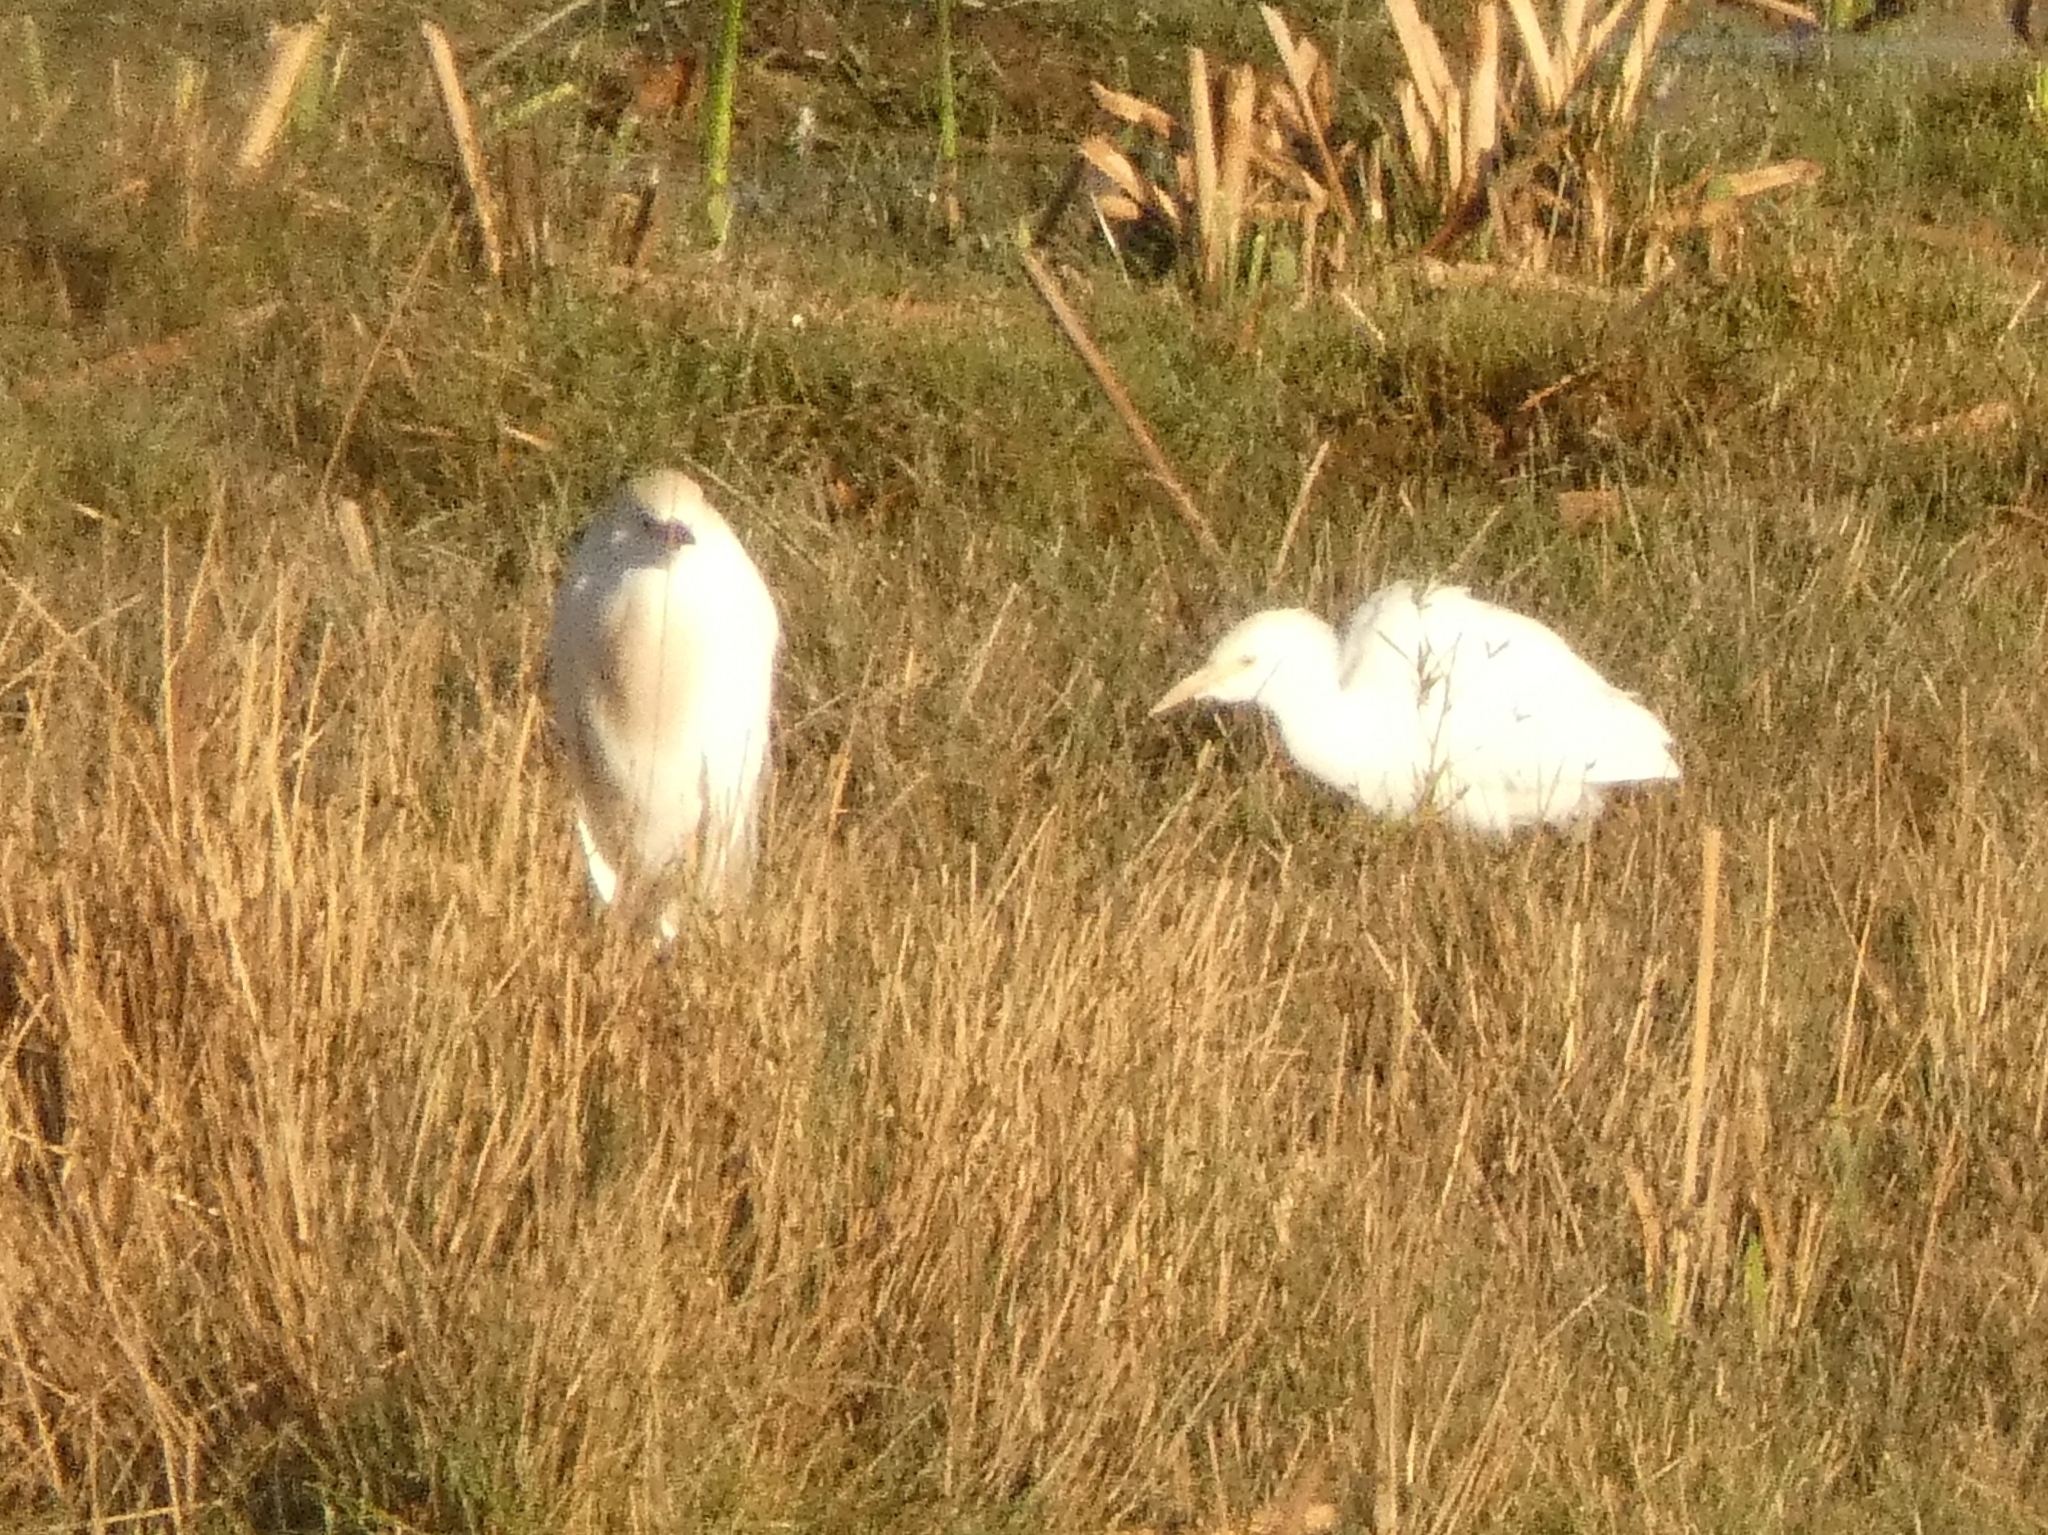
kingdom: Animalia
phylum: Chordata
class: Aves
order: Pelecaniformes
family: Ardeidae
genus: Bubulcus
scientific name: Bubulcus ibis
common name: Cattle egret
